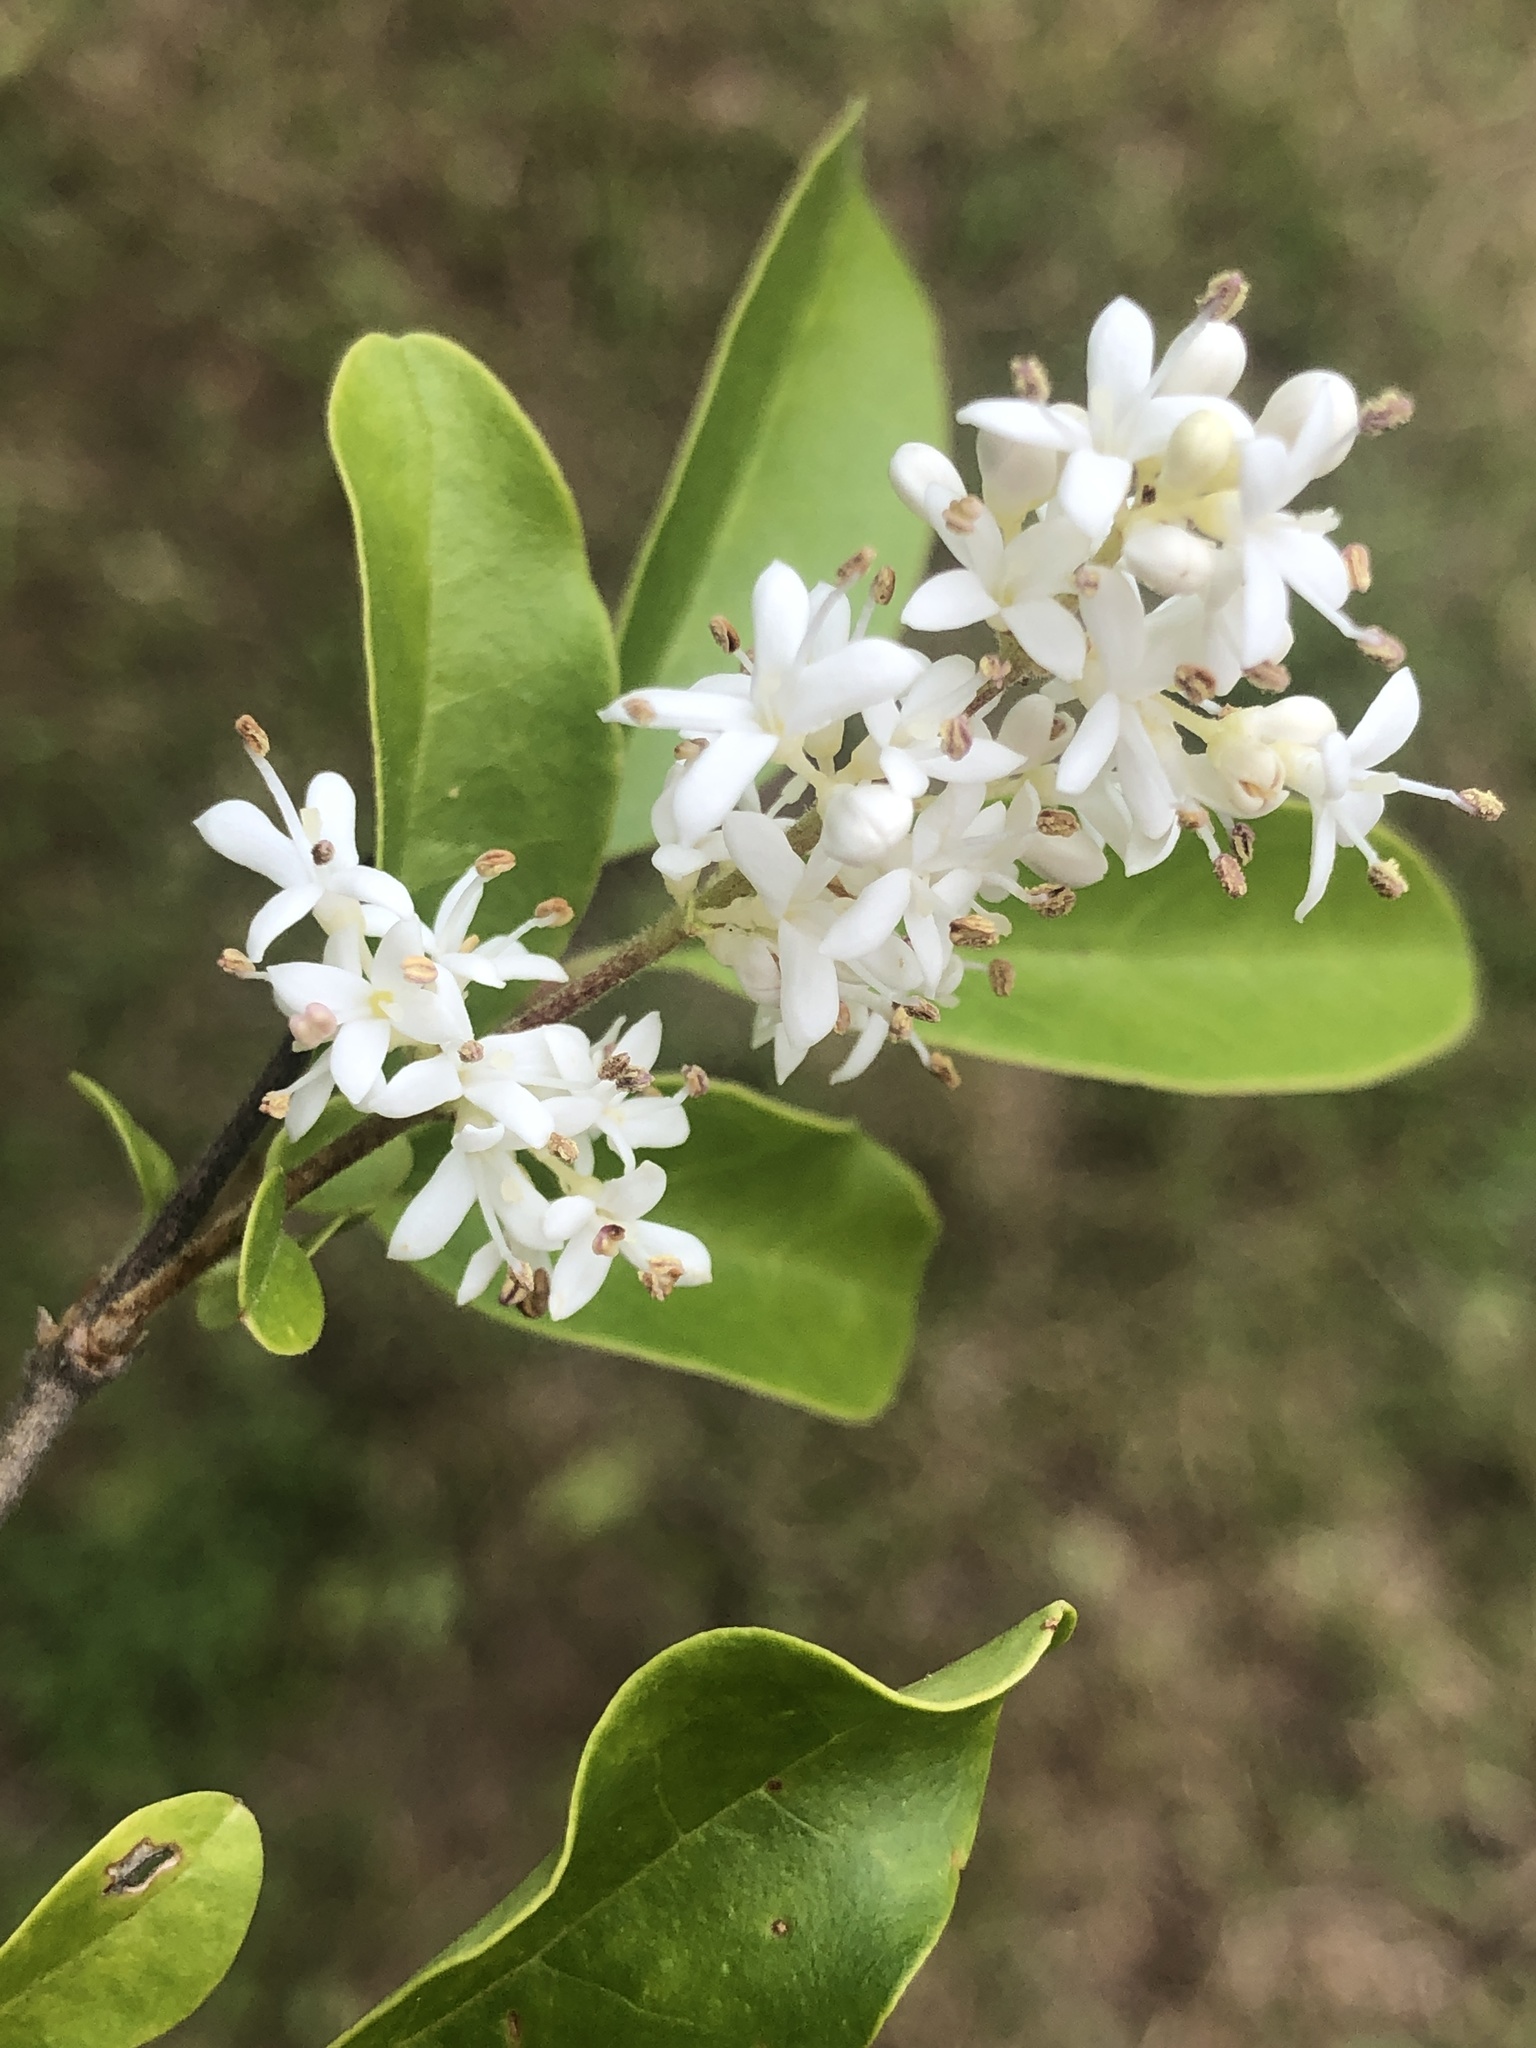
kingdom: Plantae
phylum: Tracheophyta
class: Magnoliopsida
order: Lamiales
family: Oleaceae
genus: Ligustrum
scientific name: Ligustrum sinense
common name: Chinese privet
